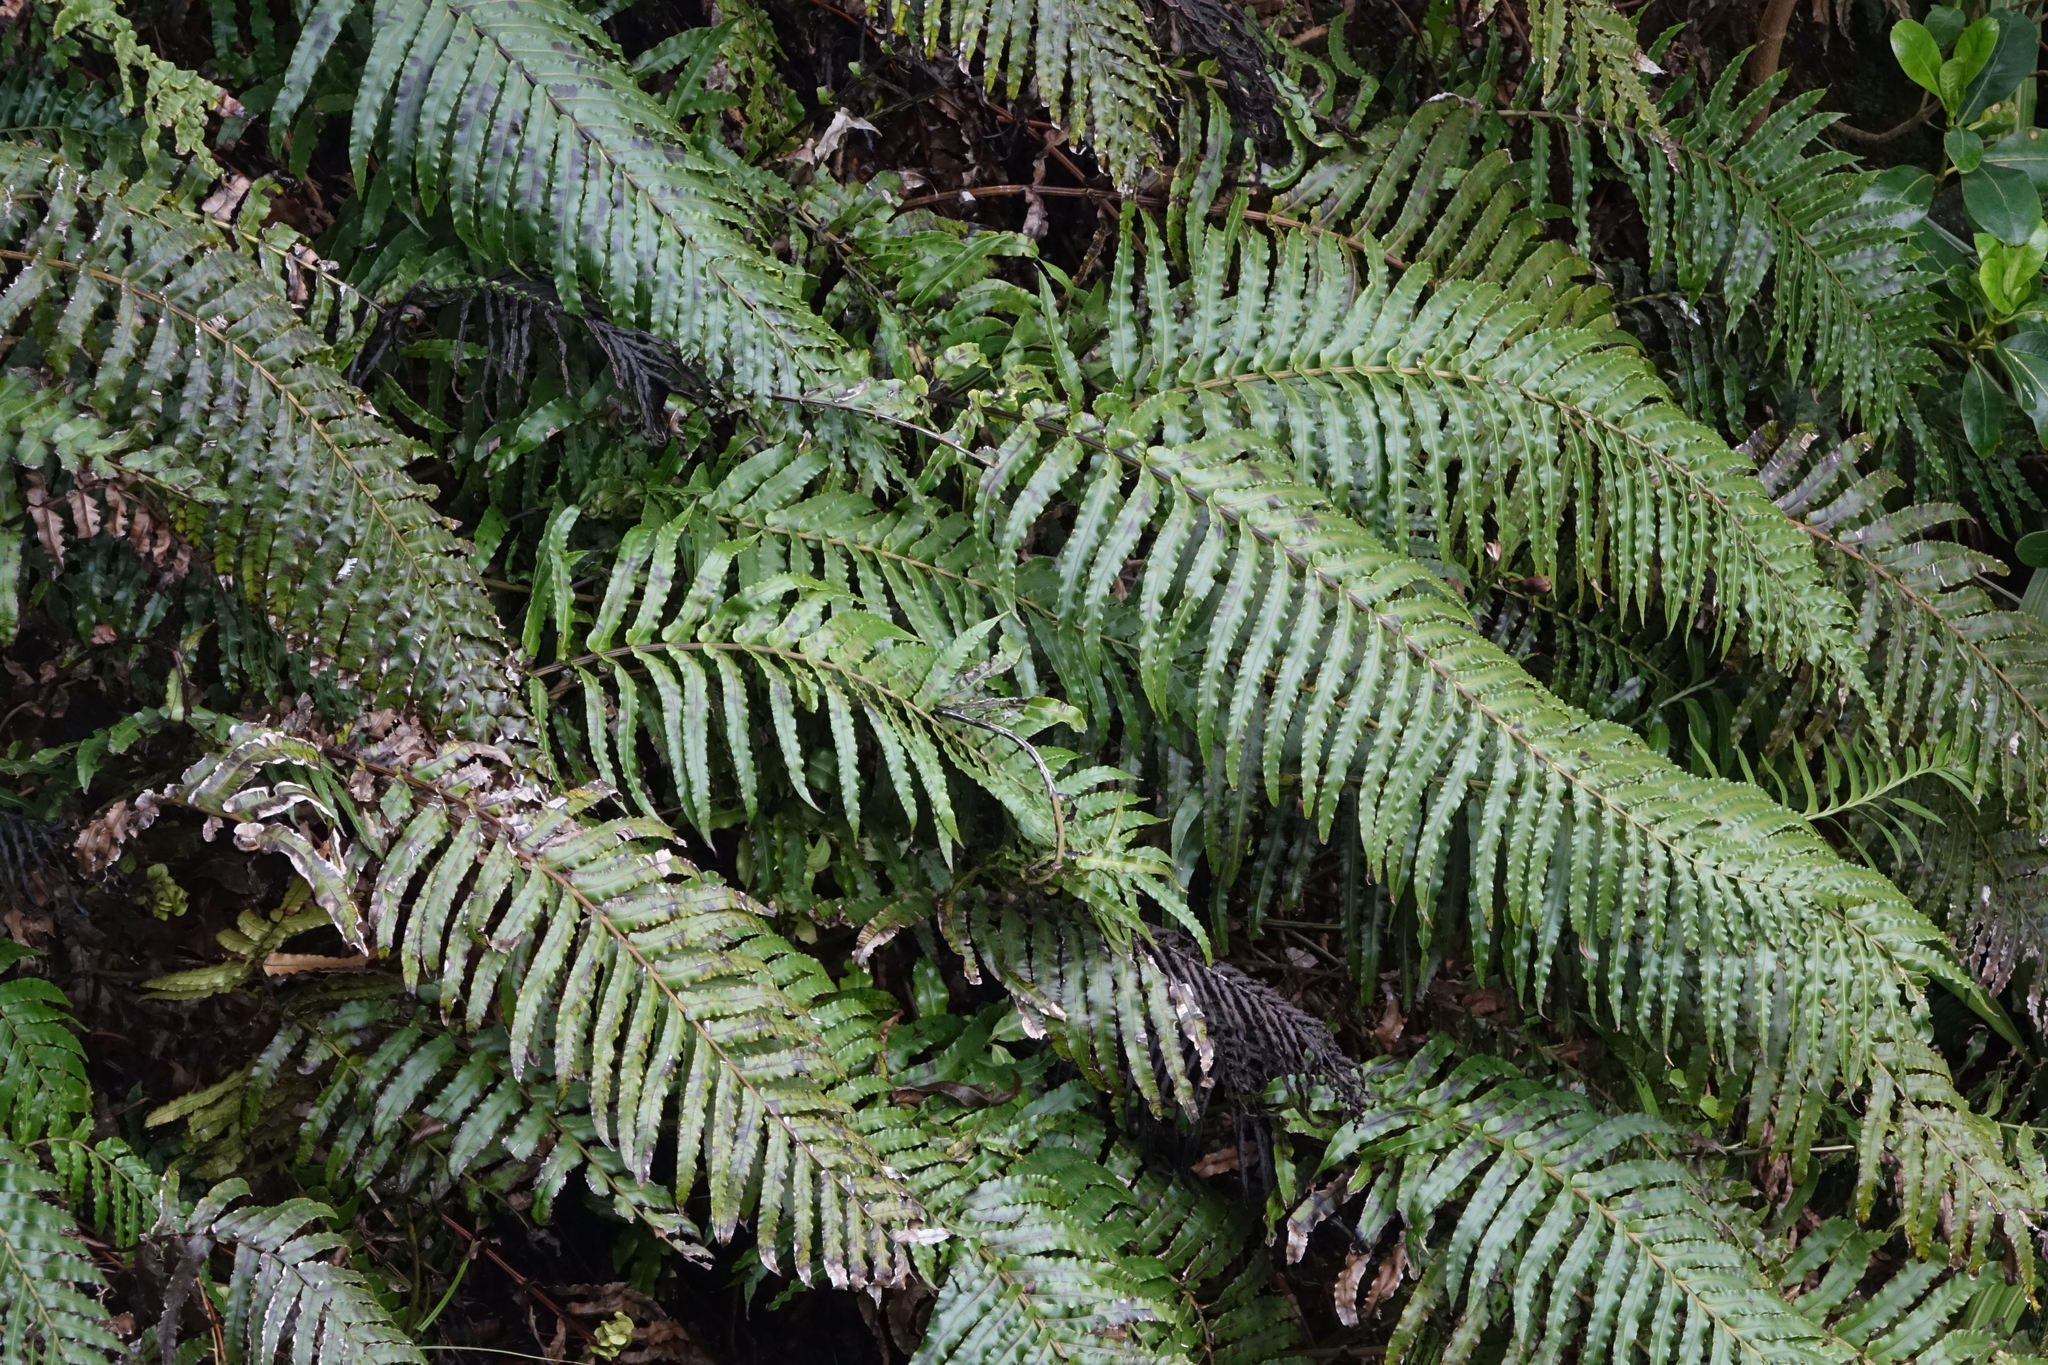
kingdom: Plantae
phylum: Tracheophyta
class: Polypodiopsida
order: Polypodiales
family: Blechnaceae
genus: Parablechnum
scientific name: Parablechnum novae-zelandiae
